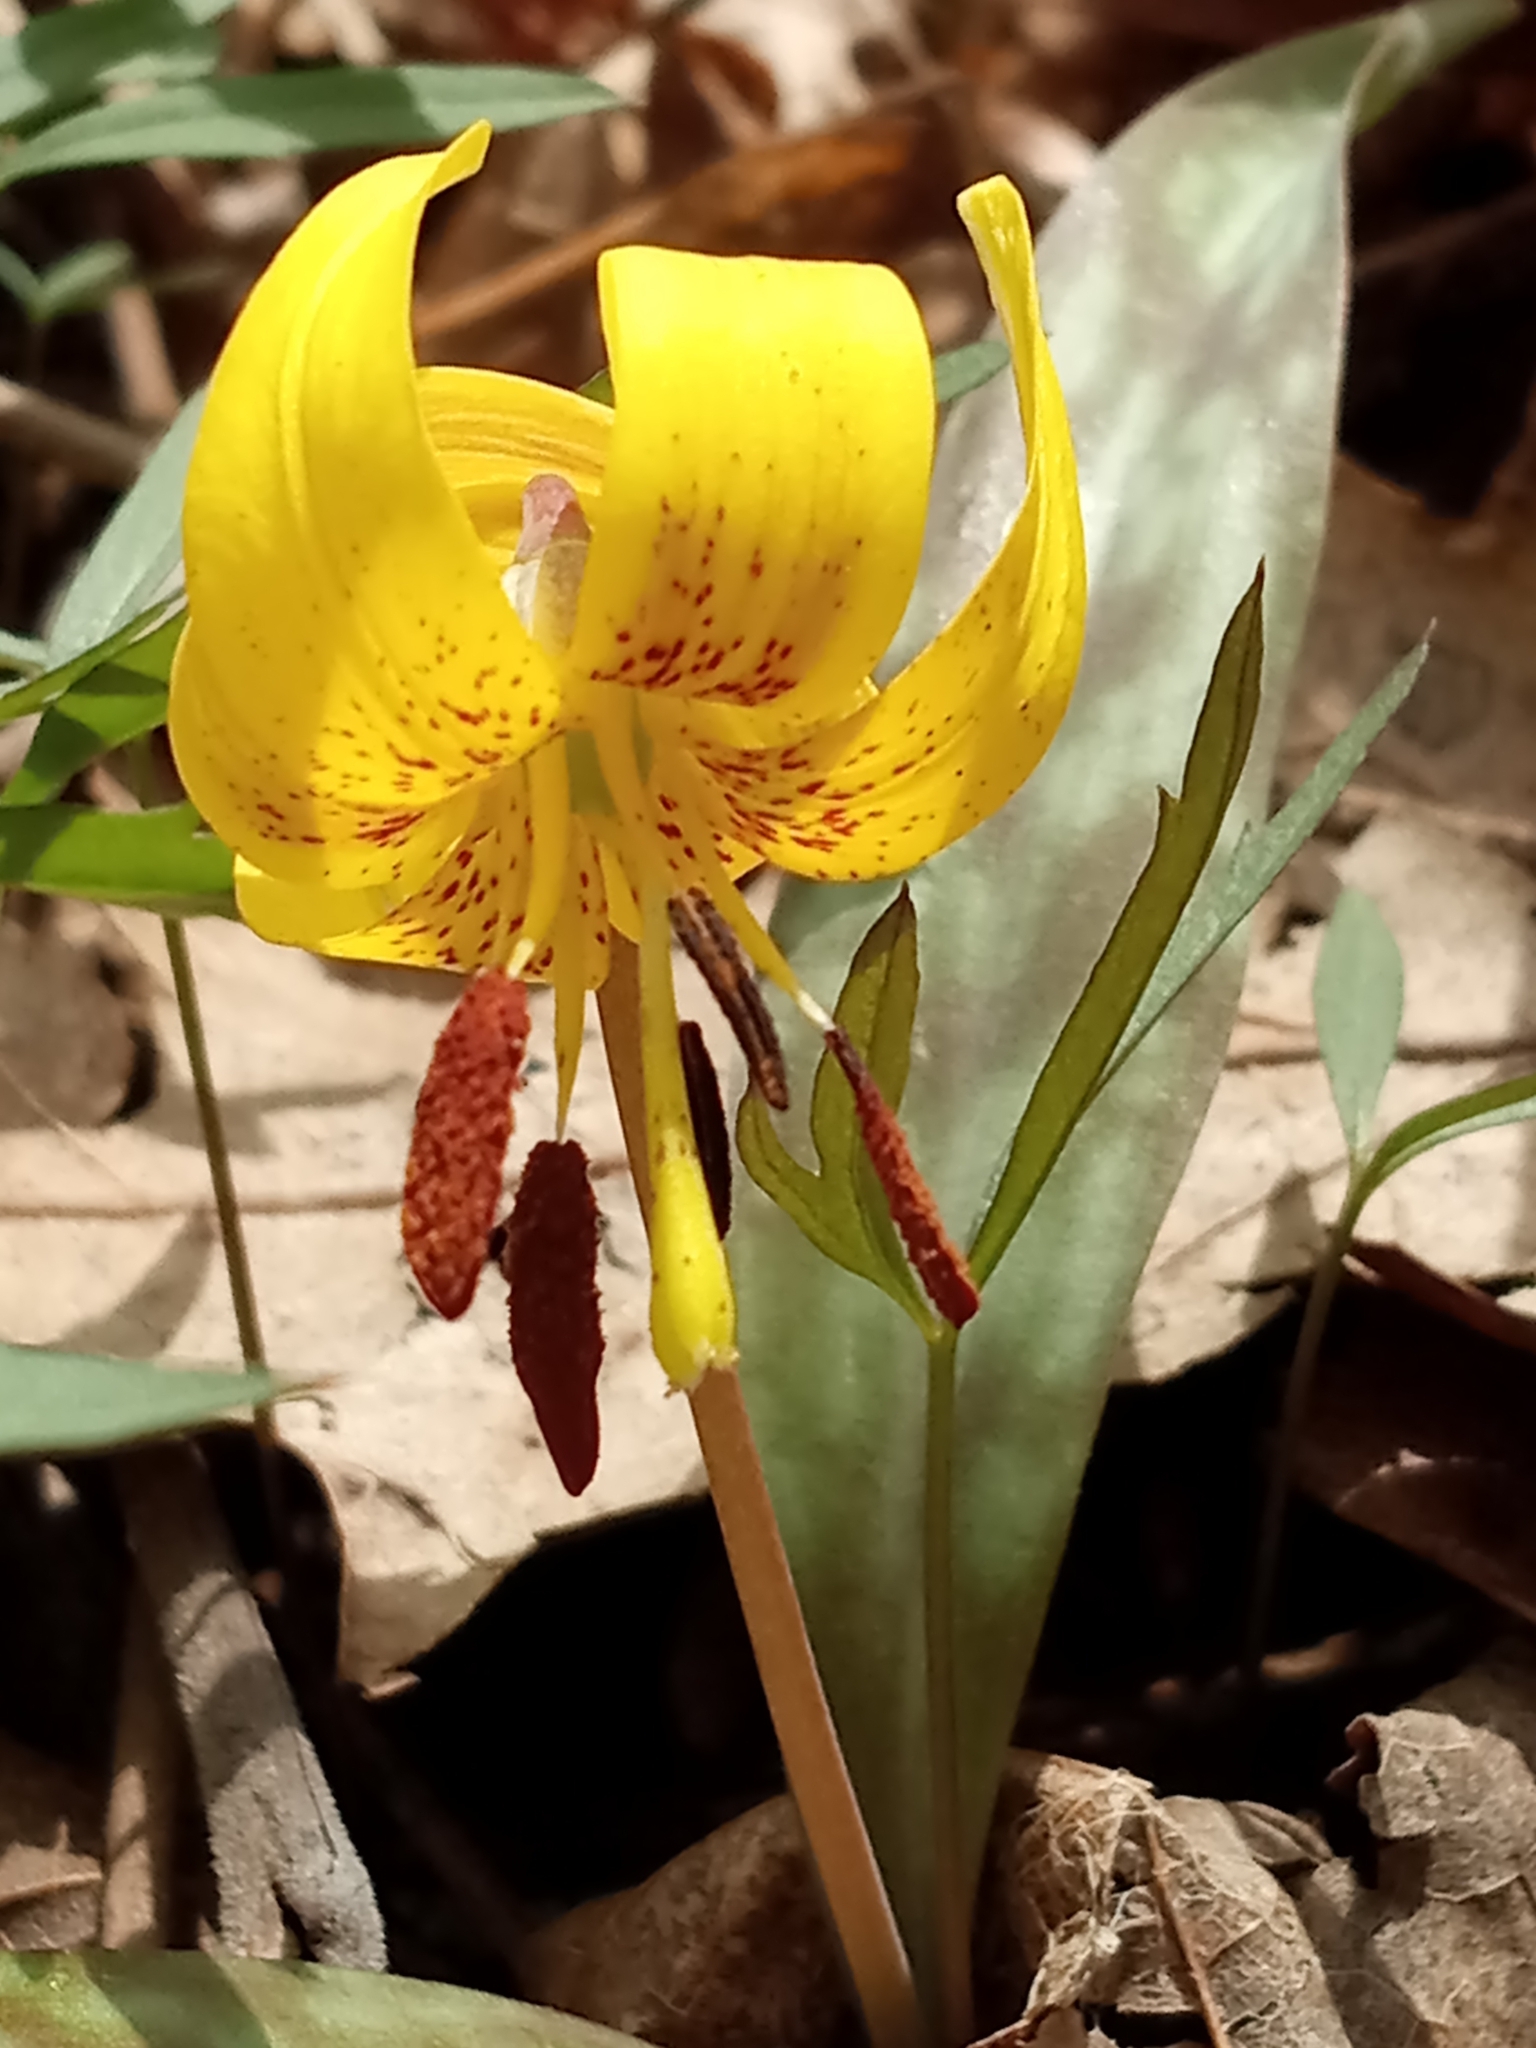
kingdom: Plantae
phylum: Tracheophyta
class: Liliopsida
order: Liliales
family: Liliaceae
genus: Erythronium
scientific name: Erythronium americanum
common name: Yellow adder's-tongue
